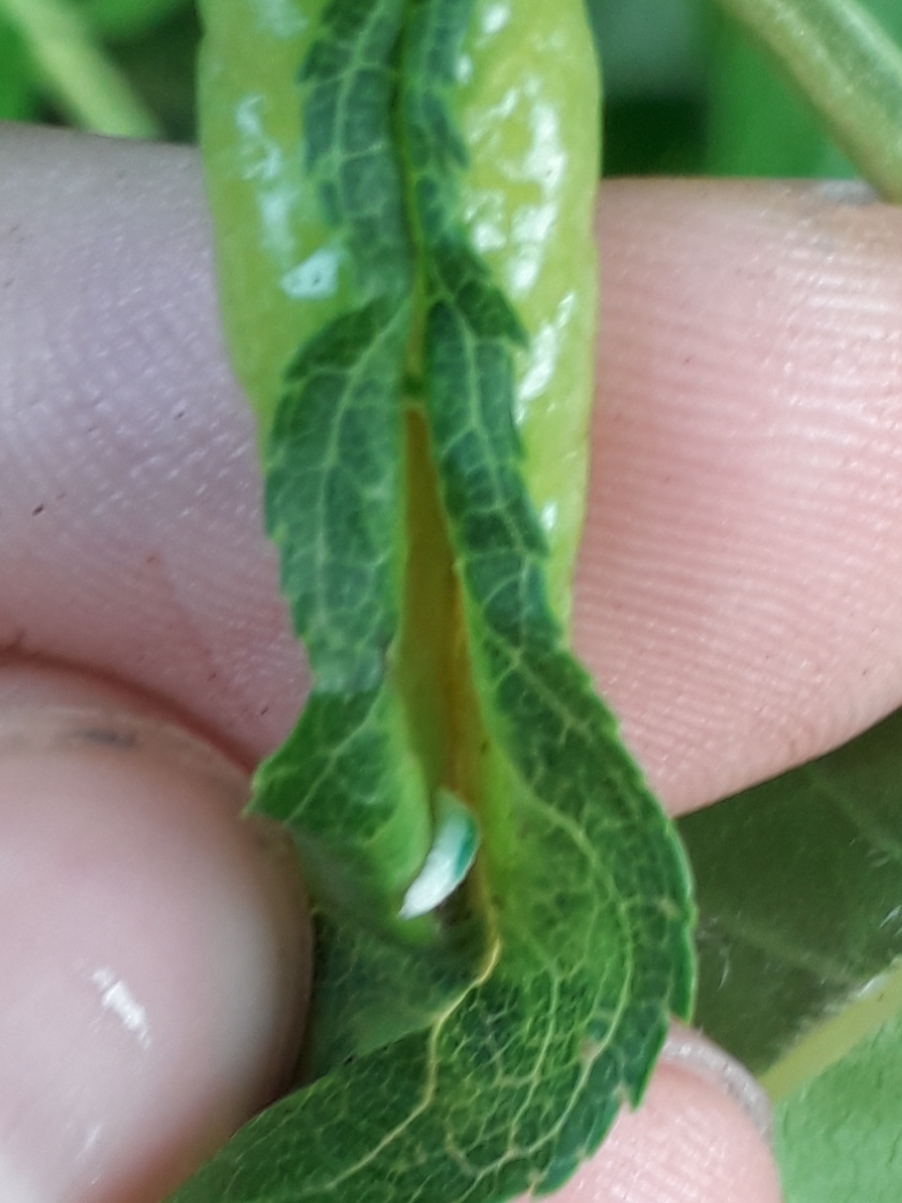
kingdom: Animalia
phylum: Arthropoda
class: Insecta
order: Diptera
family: Cecidomyiidae
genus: Dasineura
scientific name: Dasineura acrophila
